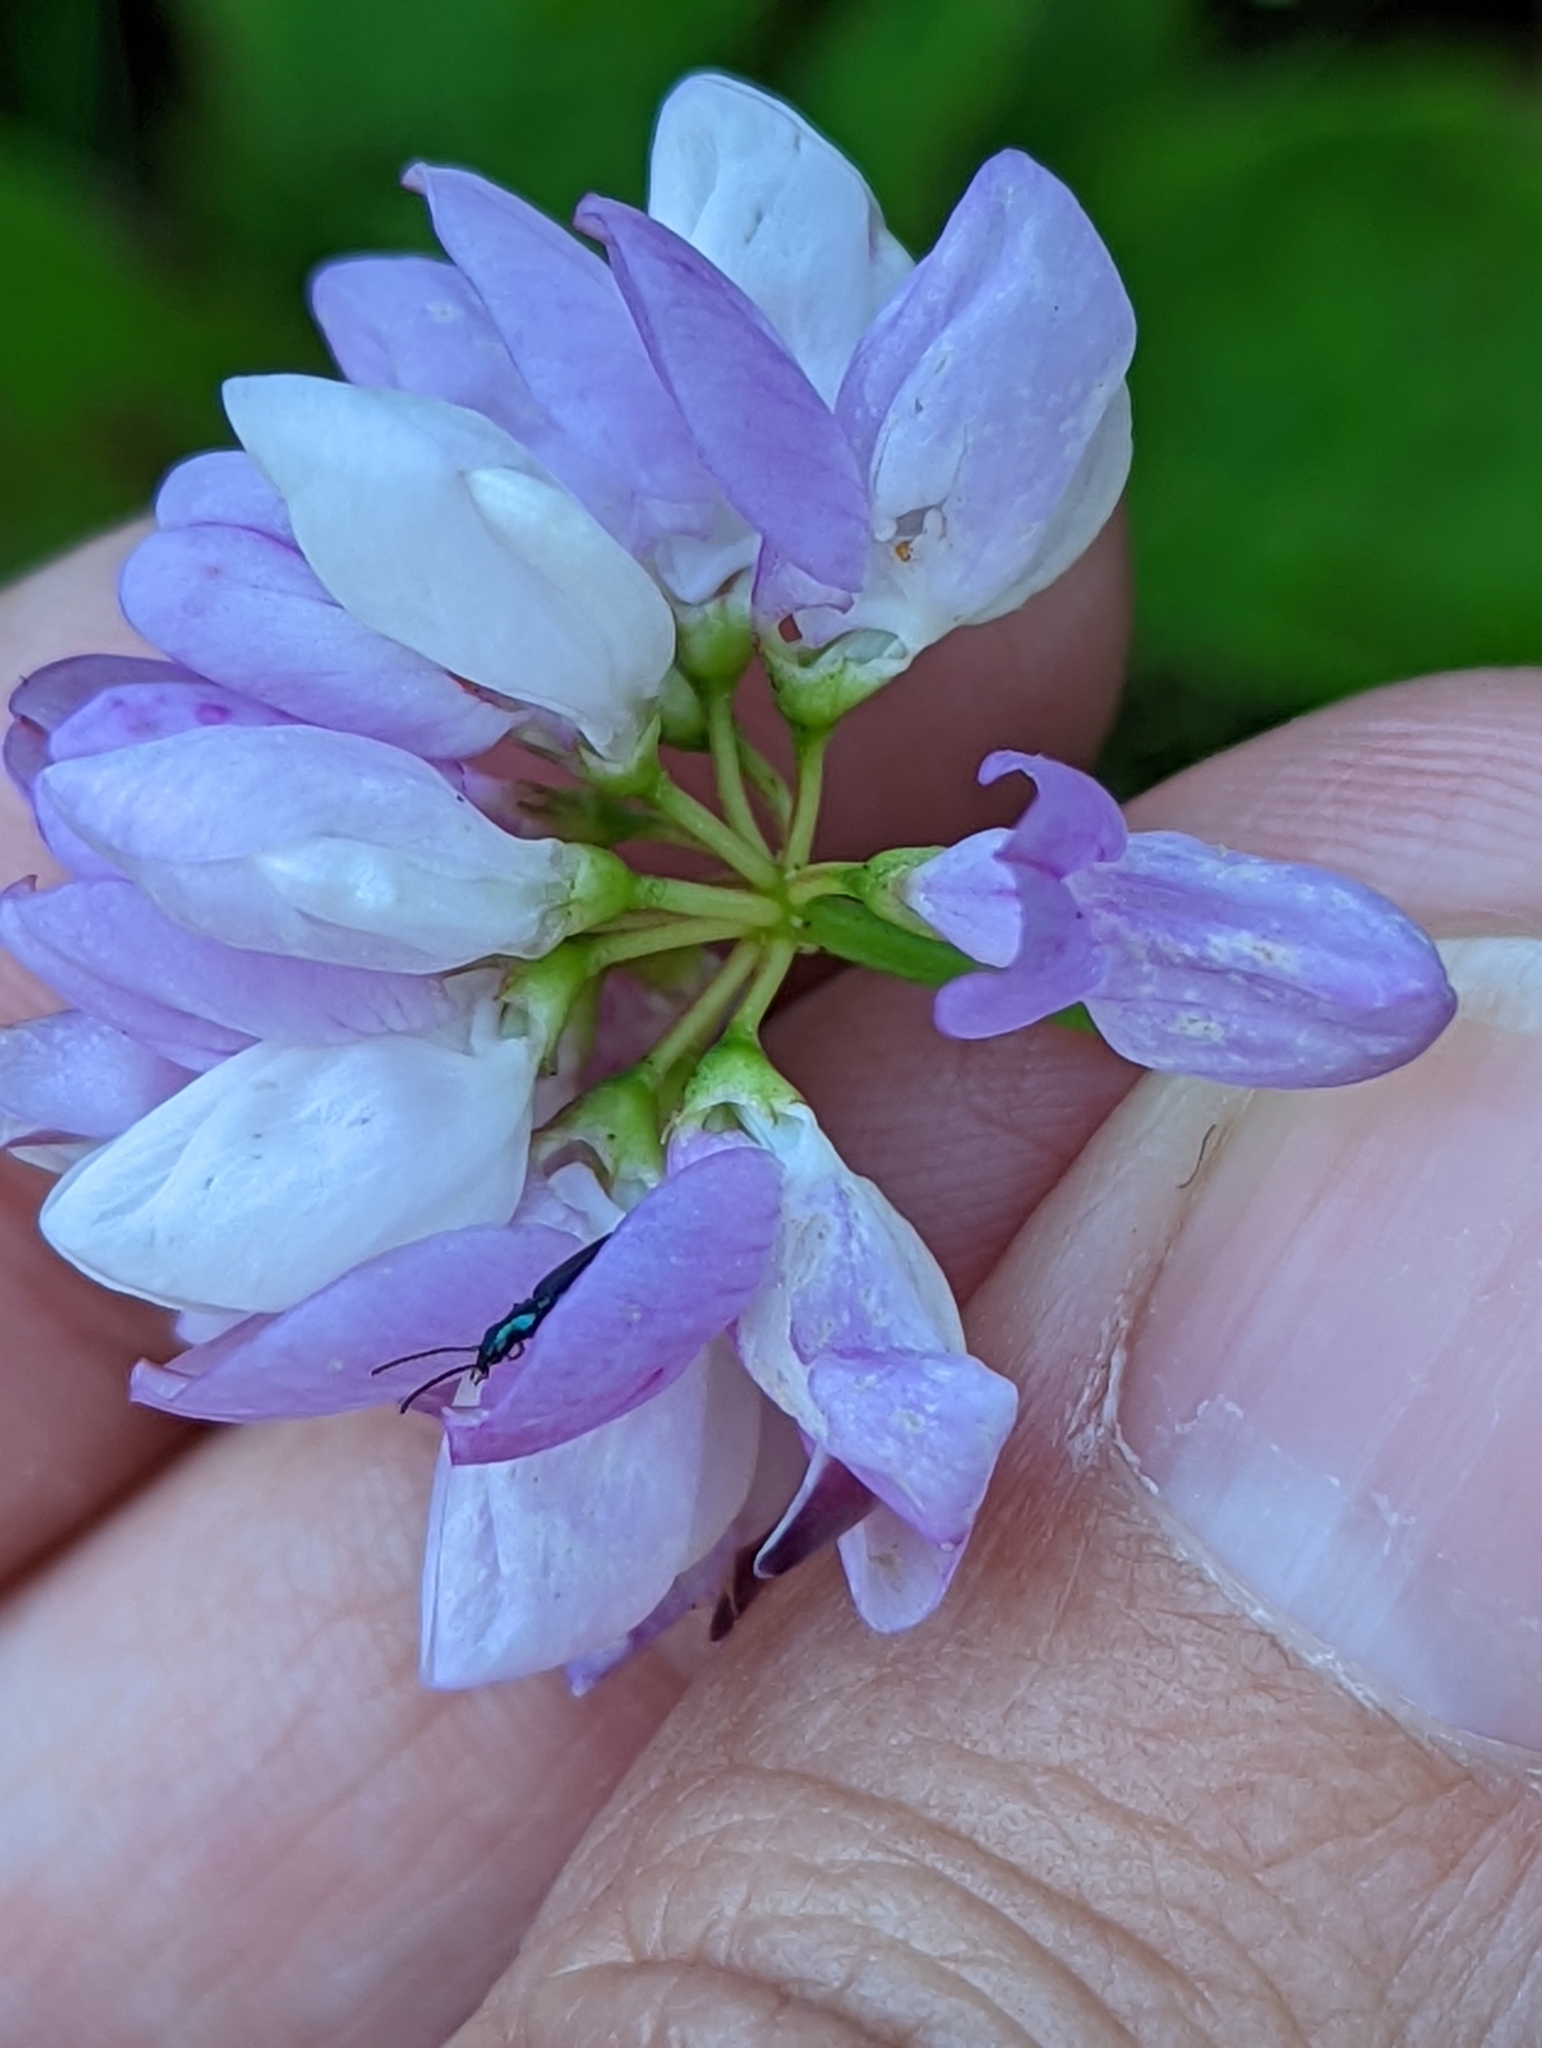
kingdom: Plantae
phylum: Tracheophyta
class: Magnoliopsida
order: Fabales
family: Fabaceae
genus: Coronilla
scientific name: Coronilla varia
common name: Crownvetch
